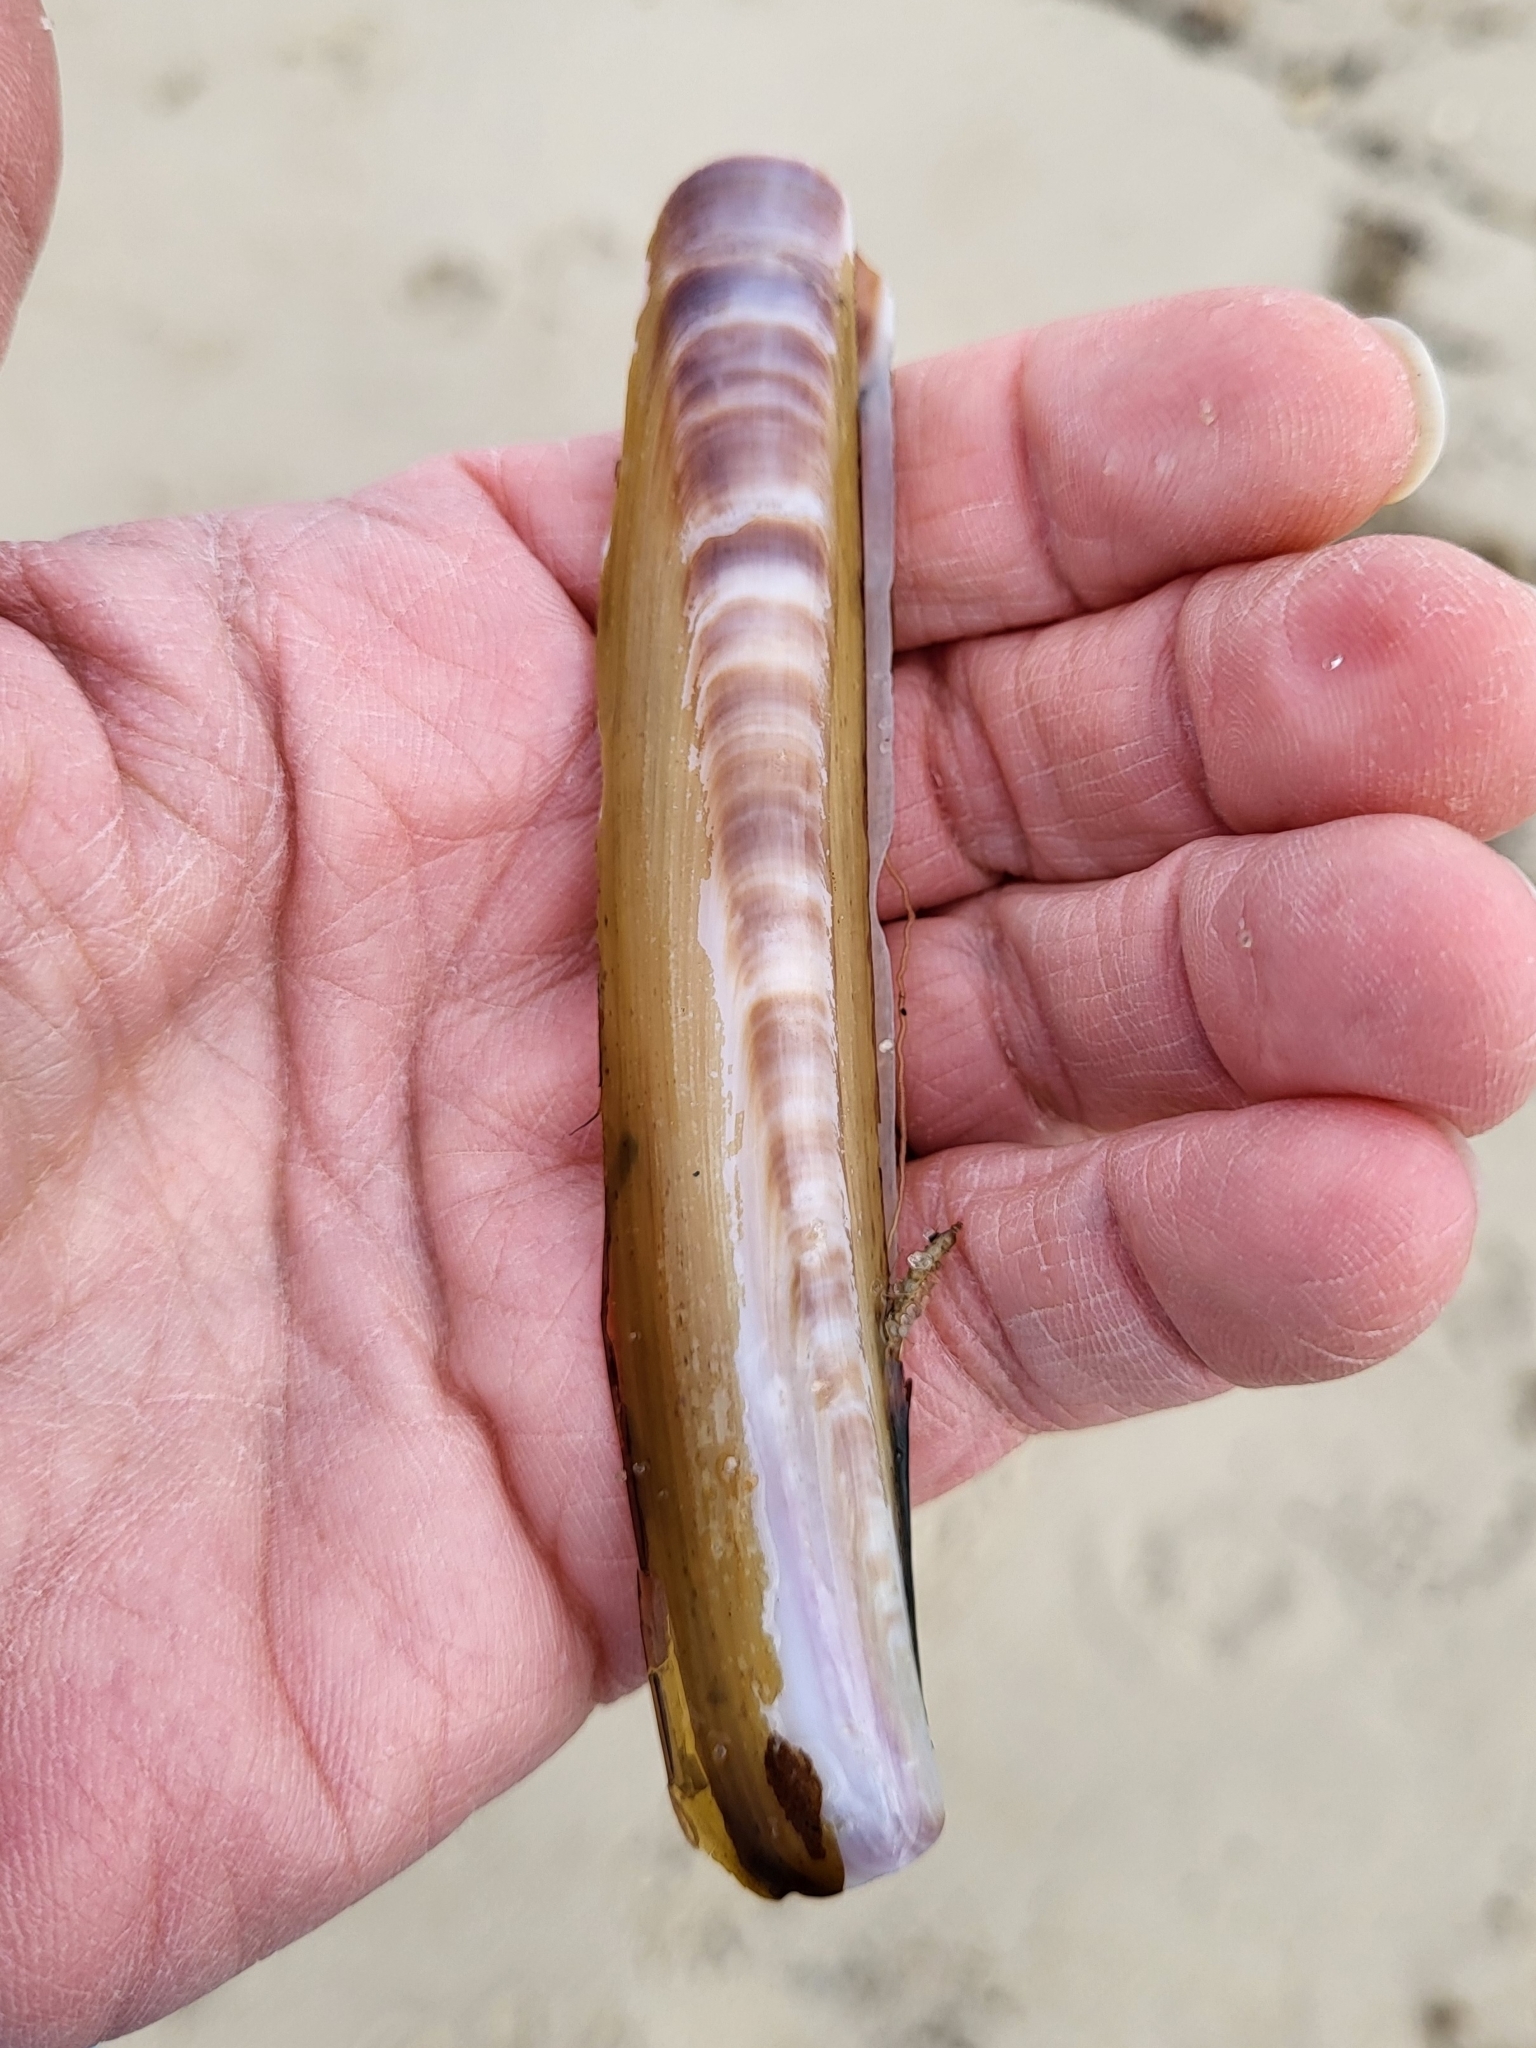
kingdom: Animalia
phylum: Mollusca
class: Bivalvia
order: Adapedonta
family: Pharidae
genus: Ensis
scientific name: Ensis leei
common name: American jack knife clam
